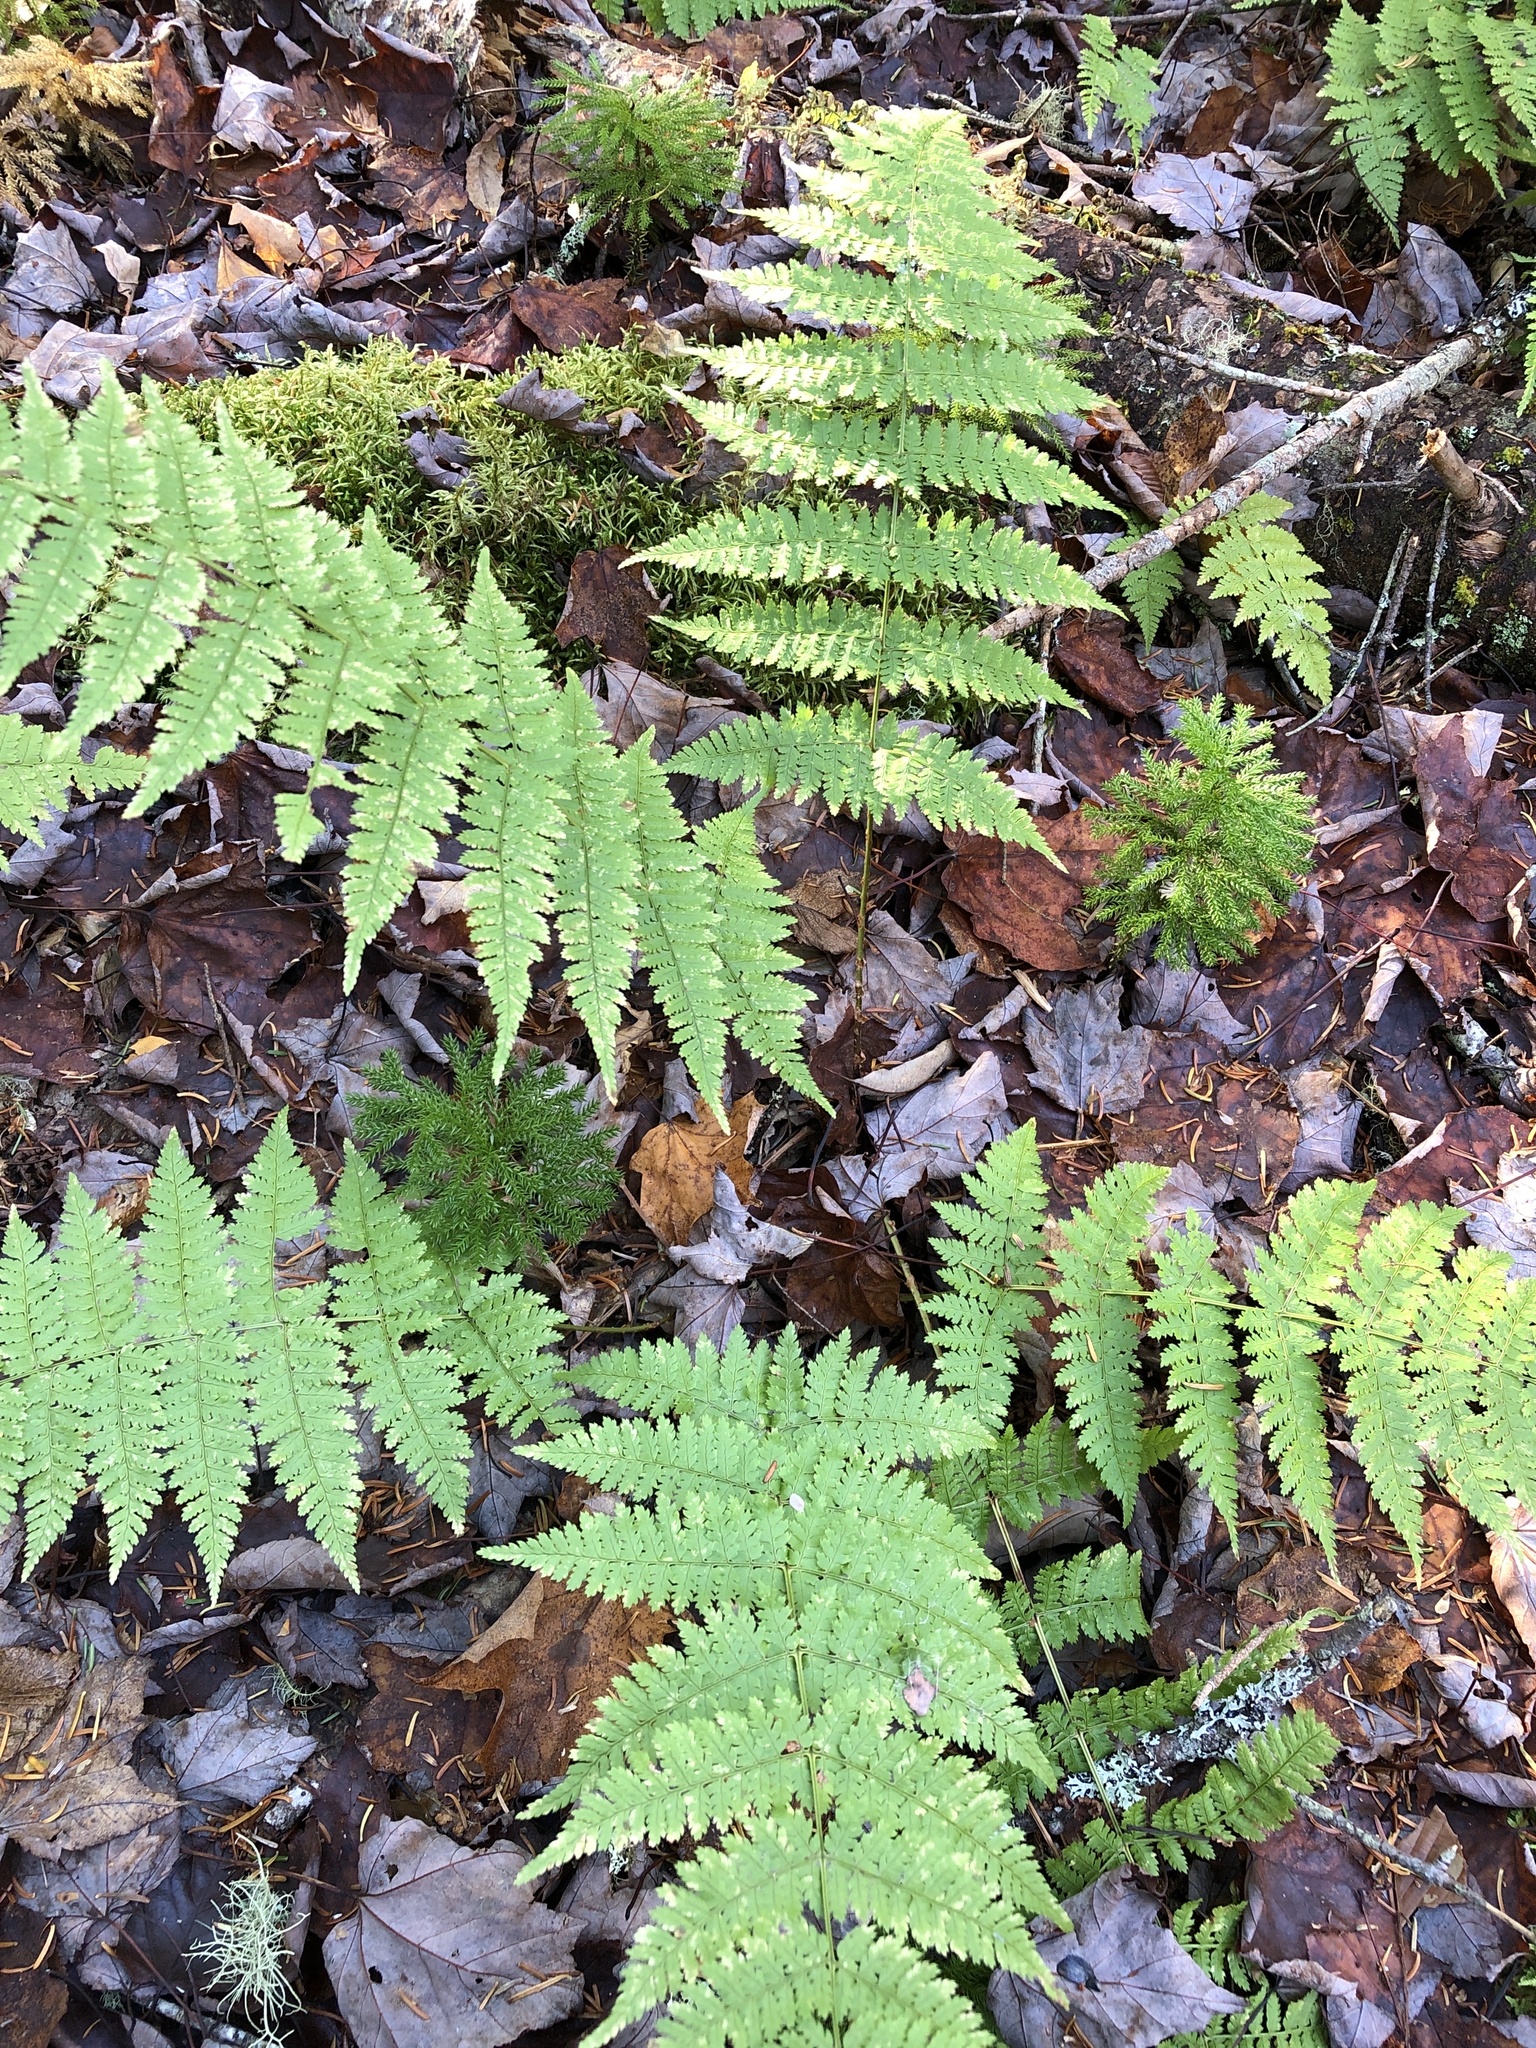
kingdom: Plantae
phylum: Tracheophyta
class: Polypodiopsida
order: Polypodiales
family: Dryopteridaceae
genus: Dryopteris
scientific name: Dryopteris intermedia
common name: Evergreen wood fern
